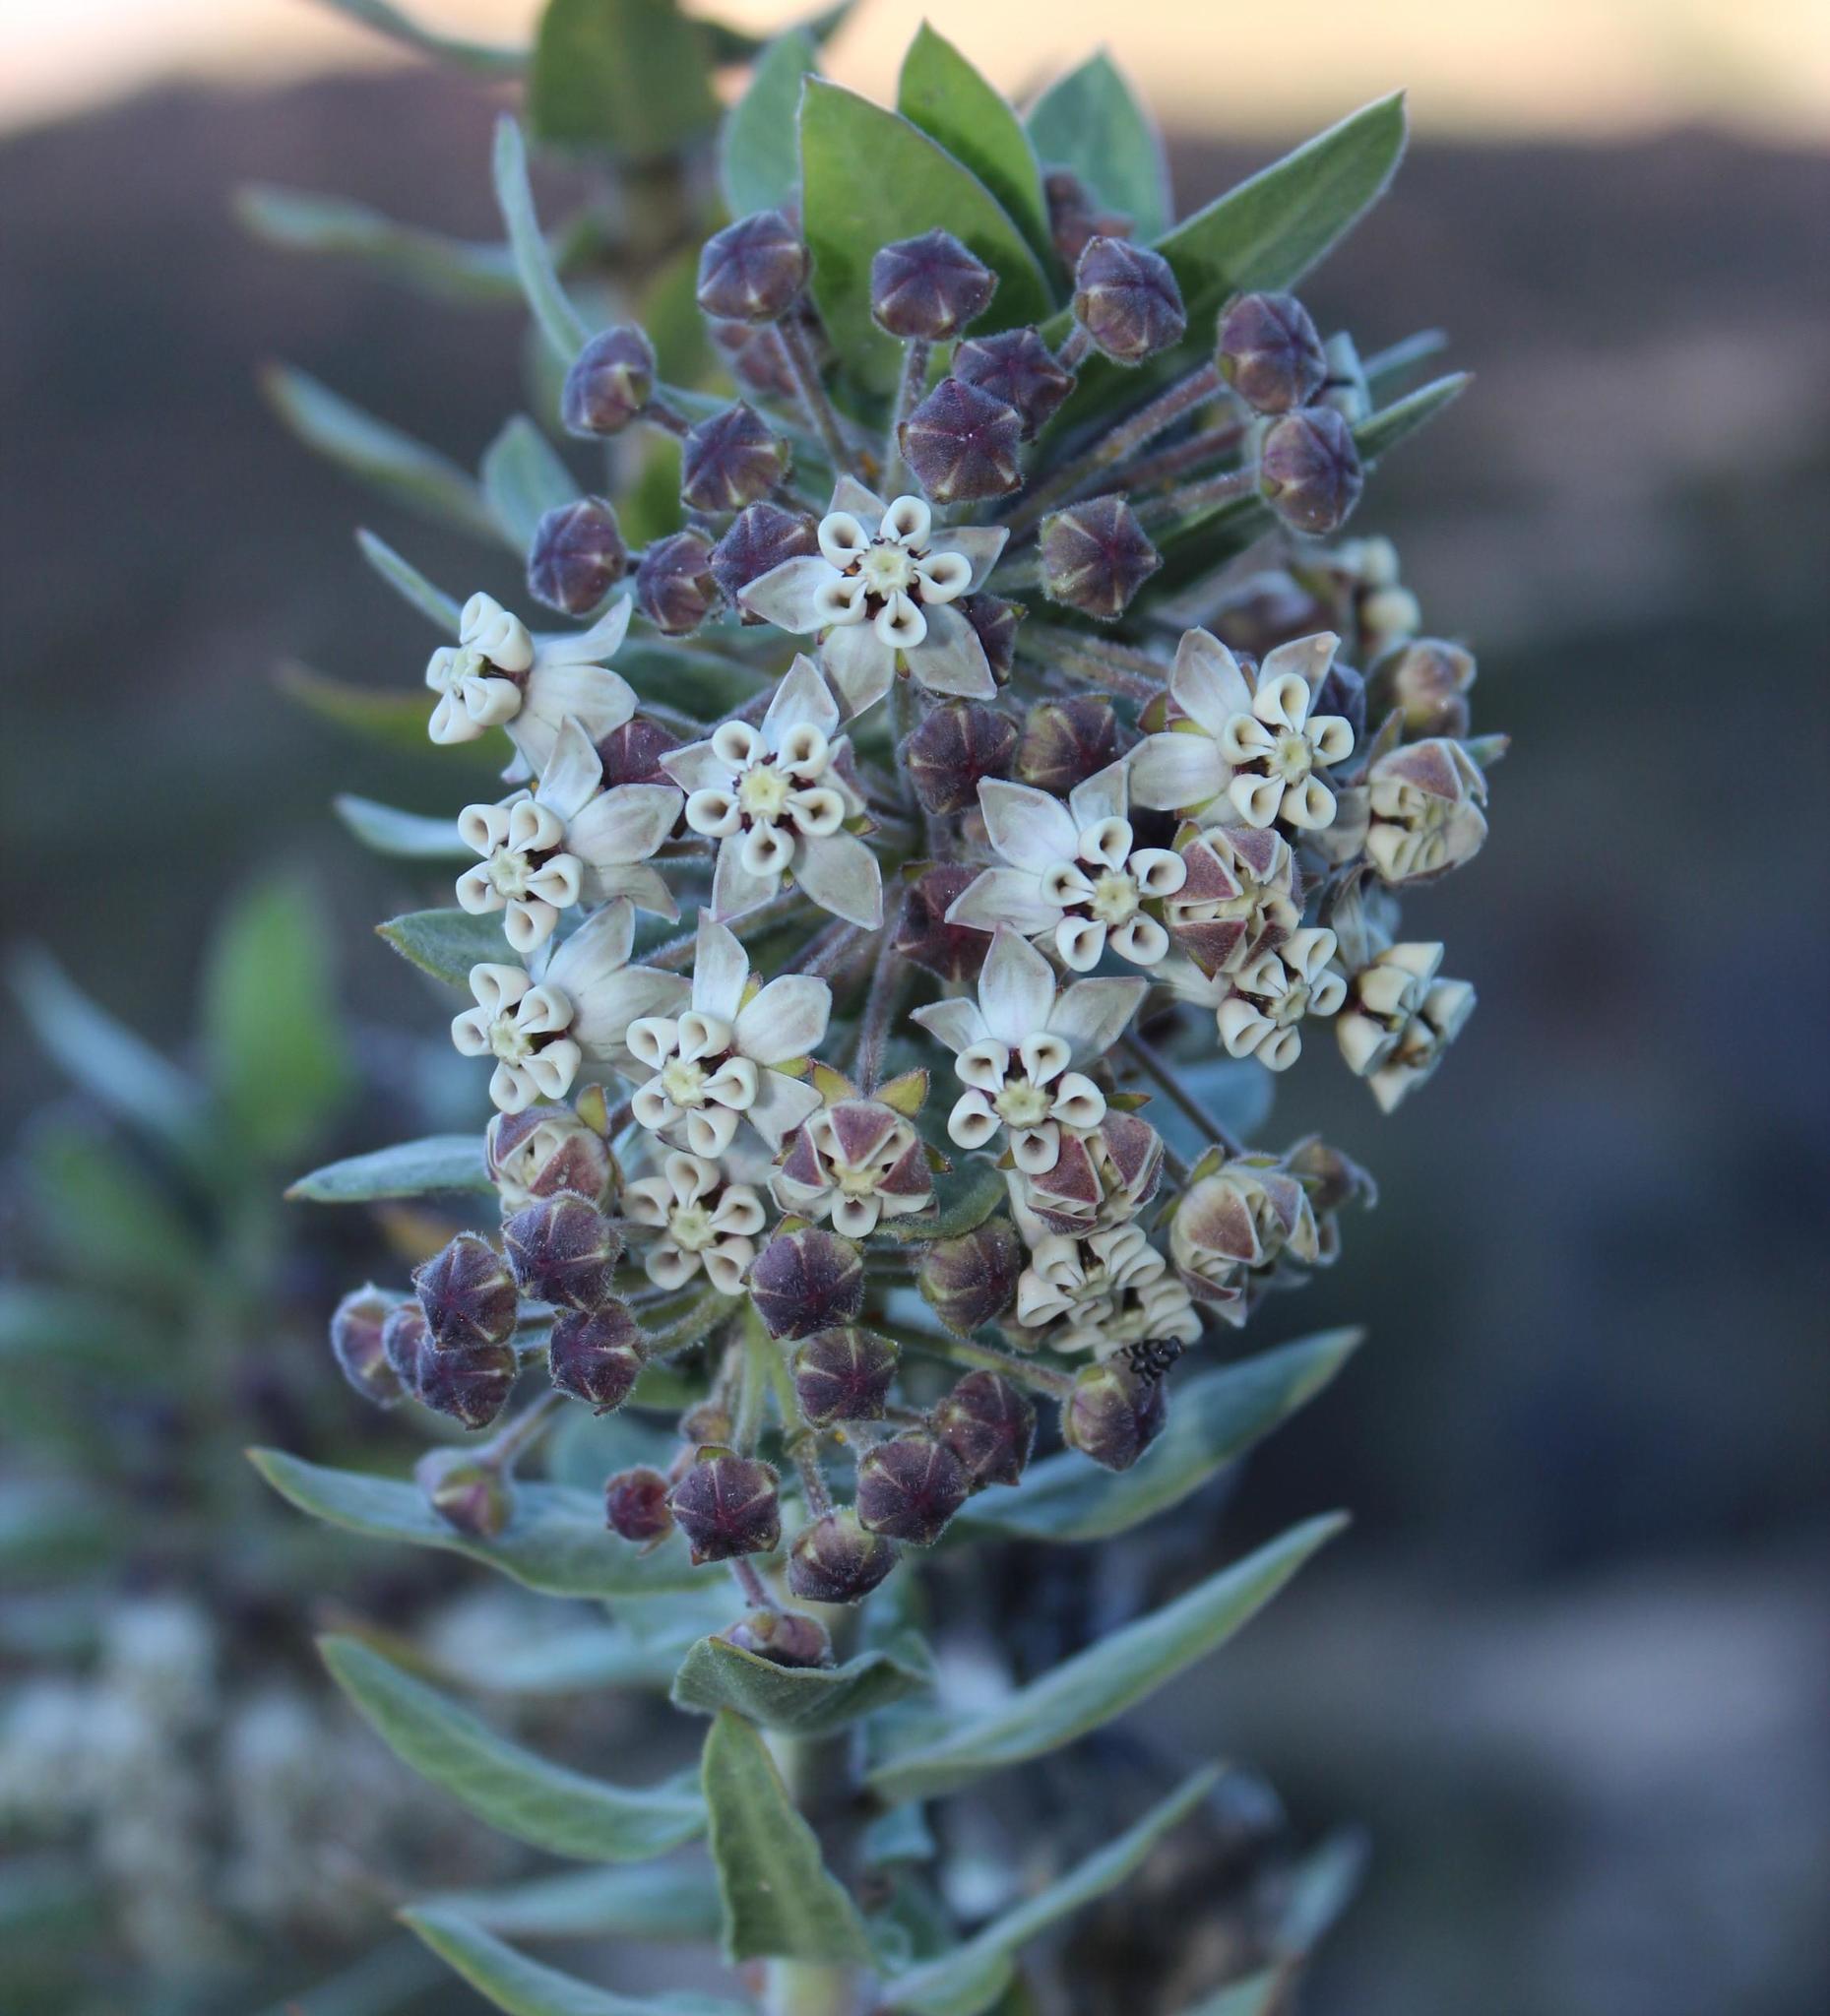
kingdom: Plantae
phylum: Tracheophyta
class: Magnoliopsida
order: Gentianales
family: Apocynaceae
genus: Gomphocarpus
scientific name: Gomphocarpus cancellatus
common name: Wild cotton
